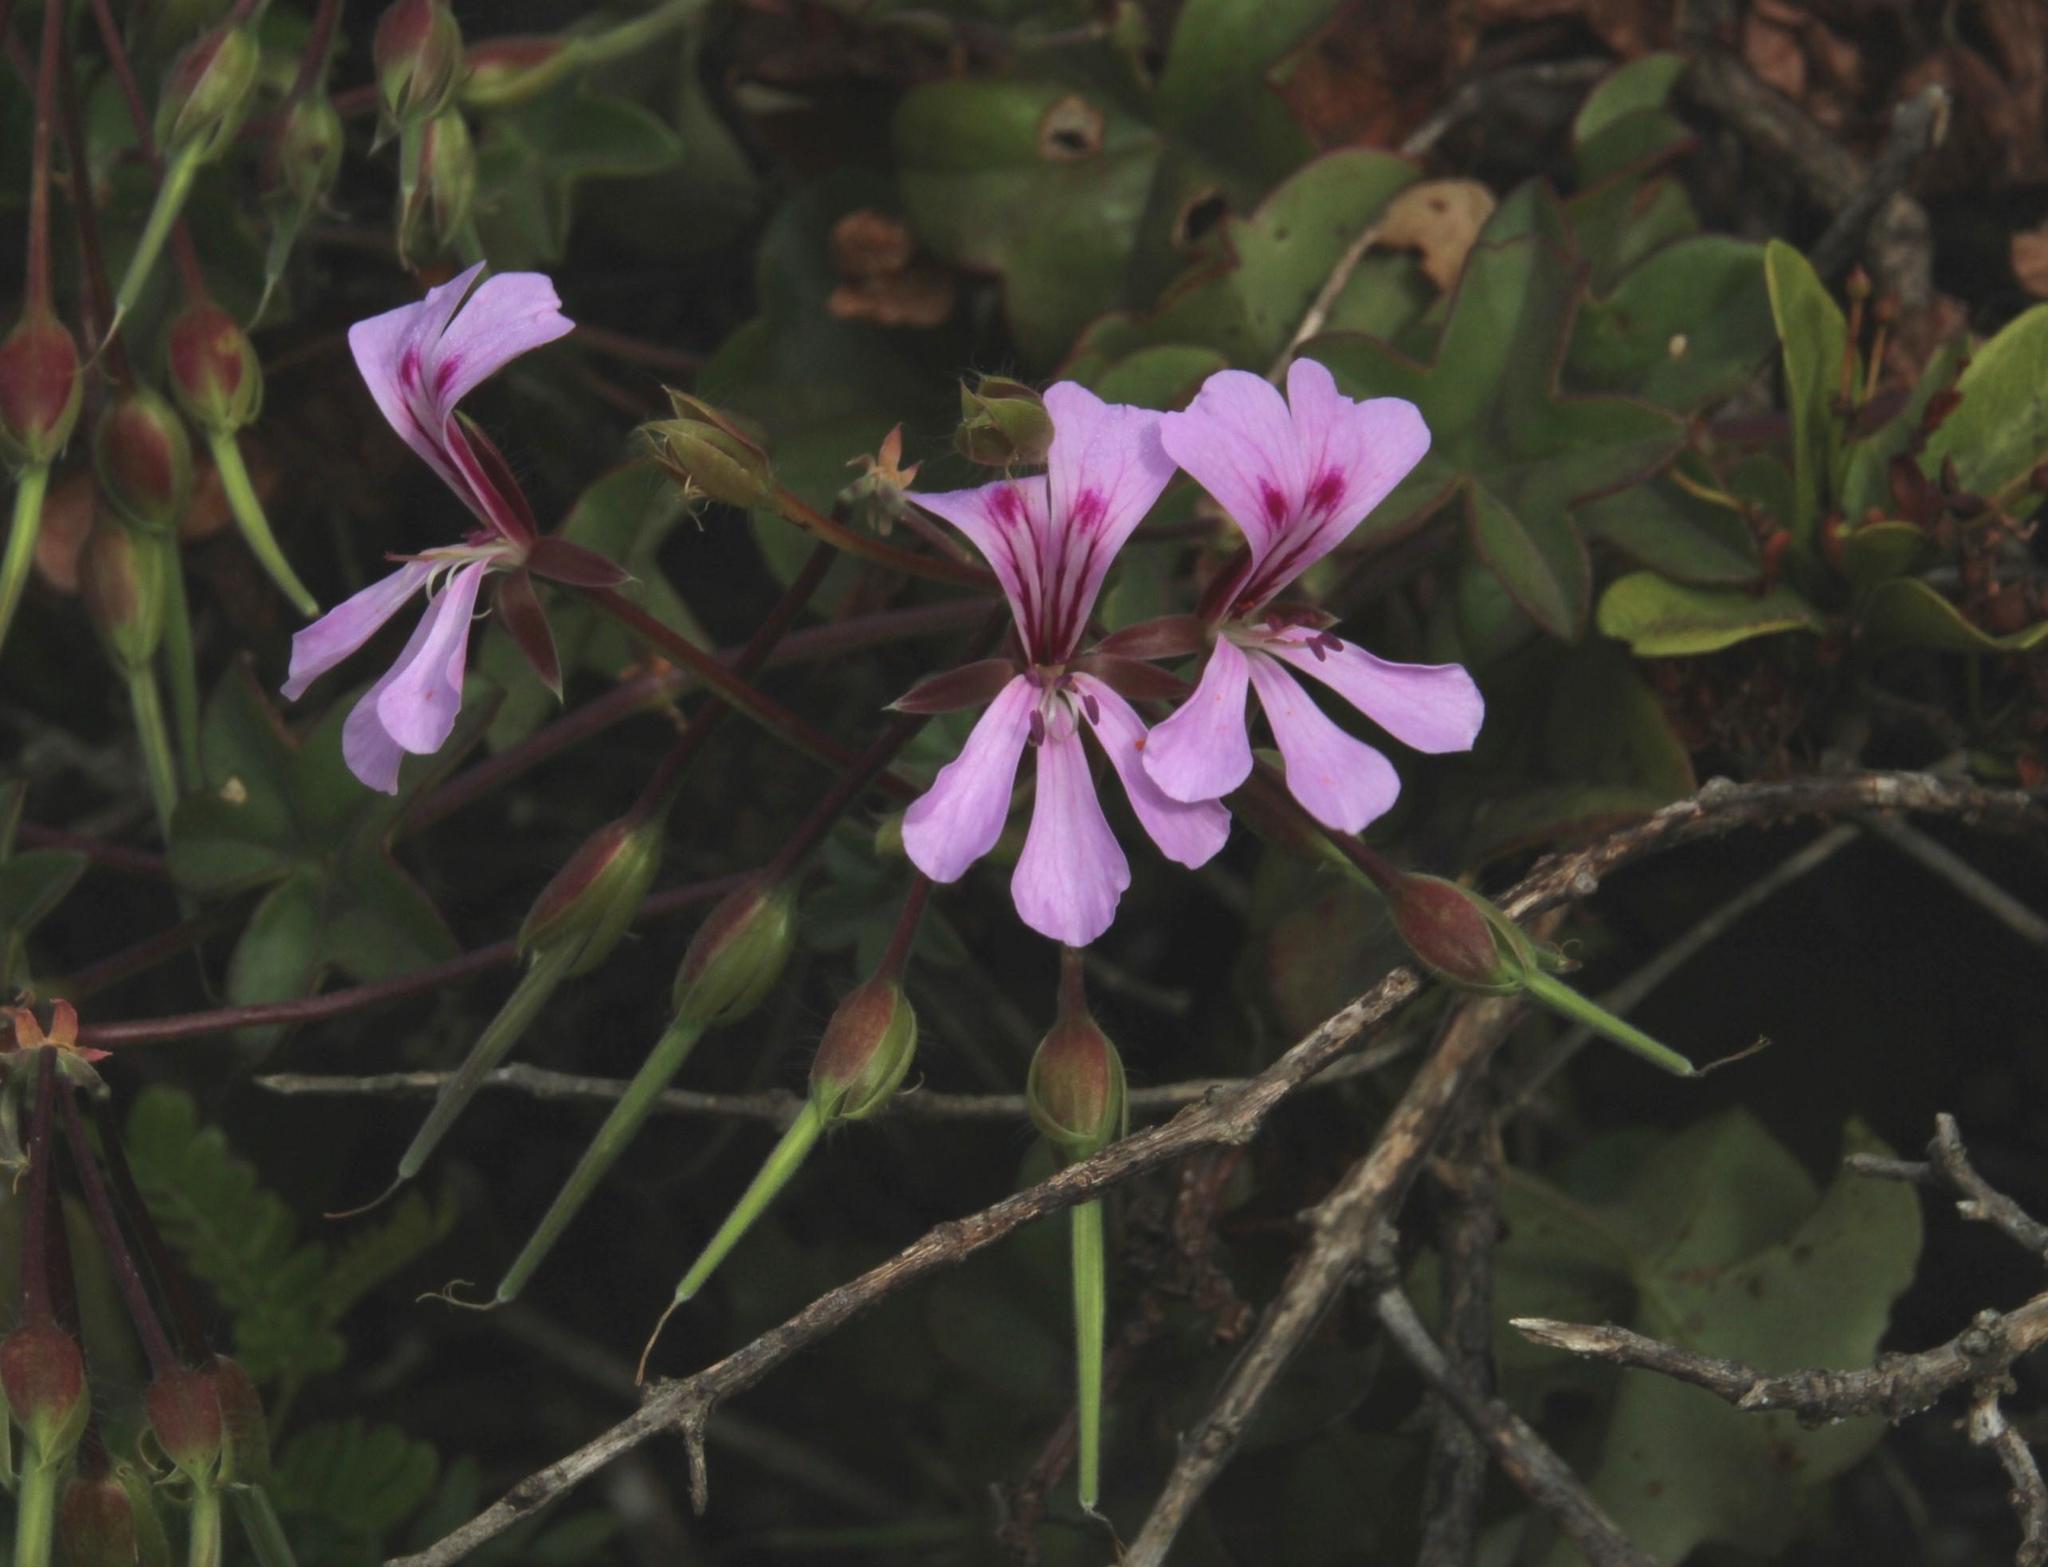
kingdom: Plantae
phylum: Tracheophyta
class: Magnoliopsida
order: Geraniales
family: Geraniaceae
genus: Pelargonium
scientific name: Pelargonium peltatum
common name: Ivyleaf geranium
